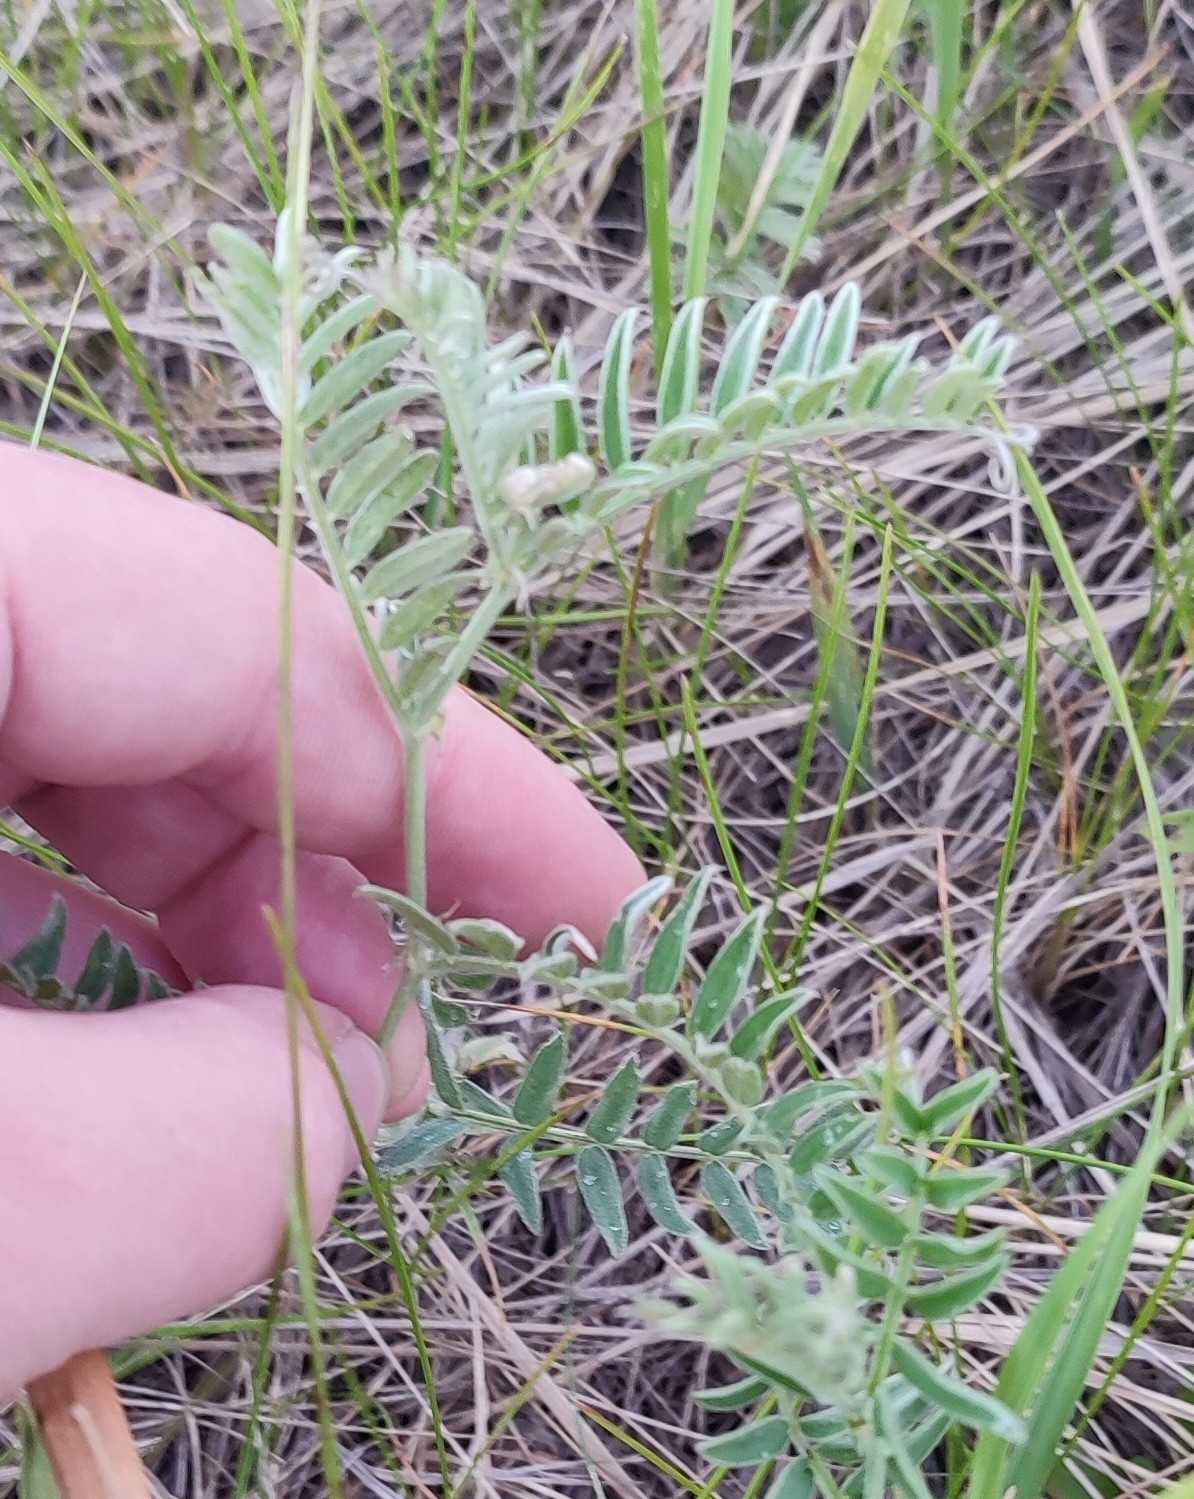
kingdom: Plantae
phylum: Tracheophyta
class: Magnoliopsida
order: Fabales
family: Fabaceae
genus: Vicia
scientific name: Vicia cracca
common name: Bird vetch
